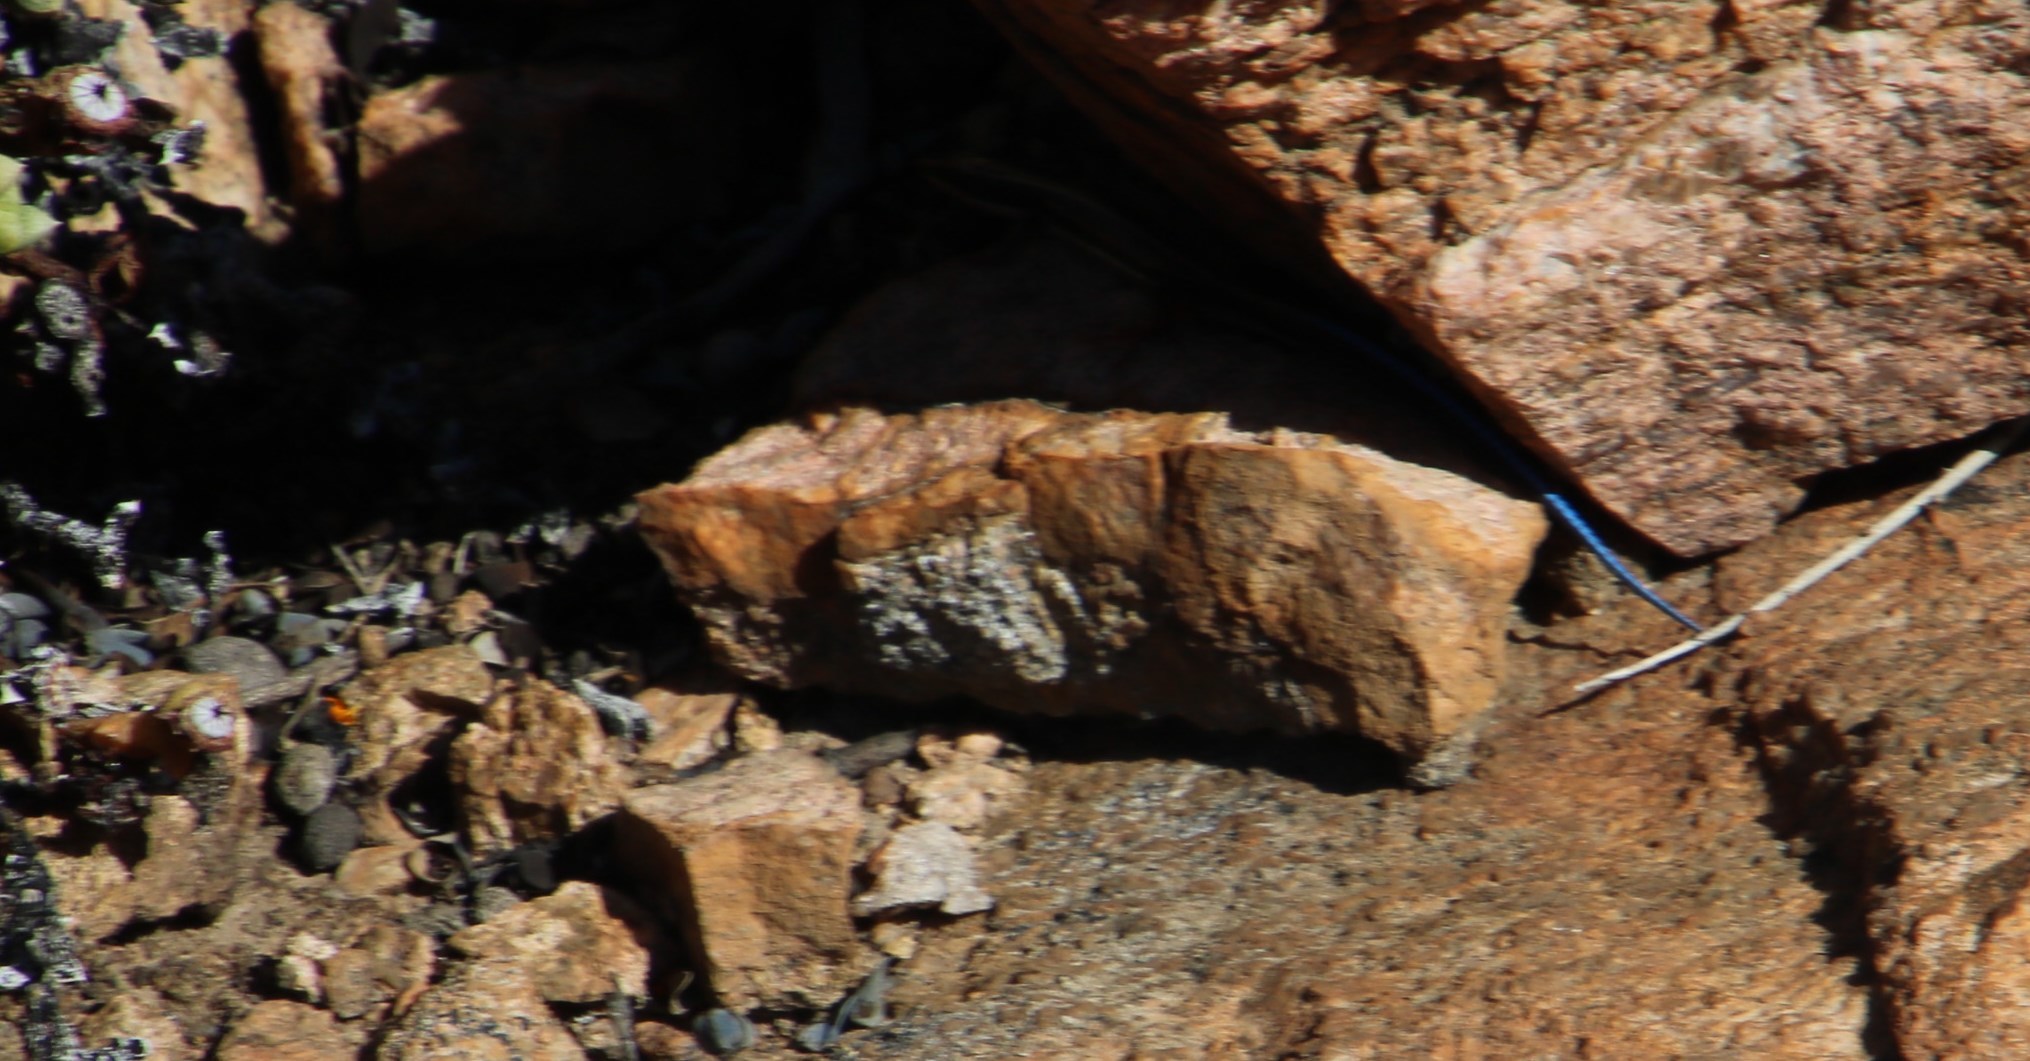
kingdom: Animalia
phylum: Chordata
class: Squamata
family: Gerrhosauridae
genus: Cordylosaurus
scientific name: Cordylosaurus subtessellatus
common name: Dwarf plated lizard
